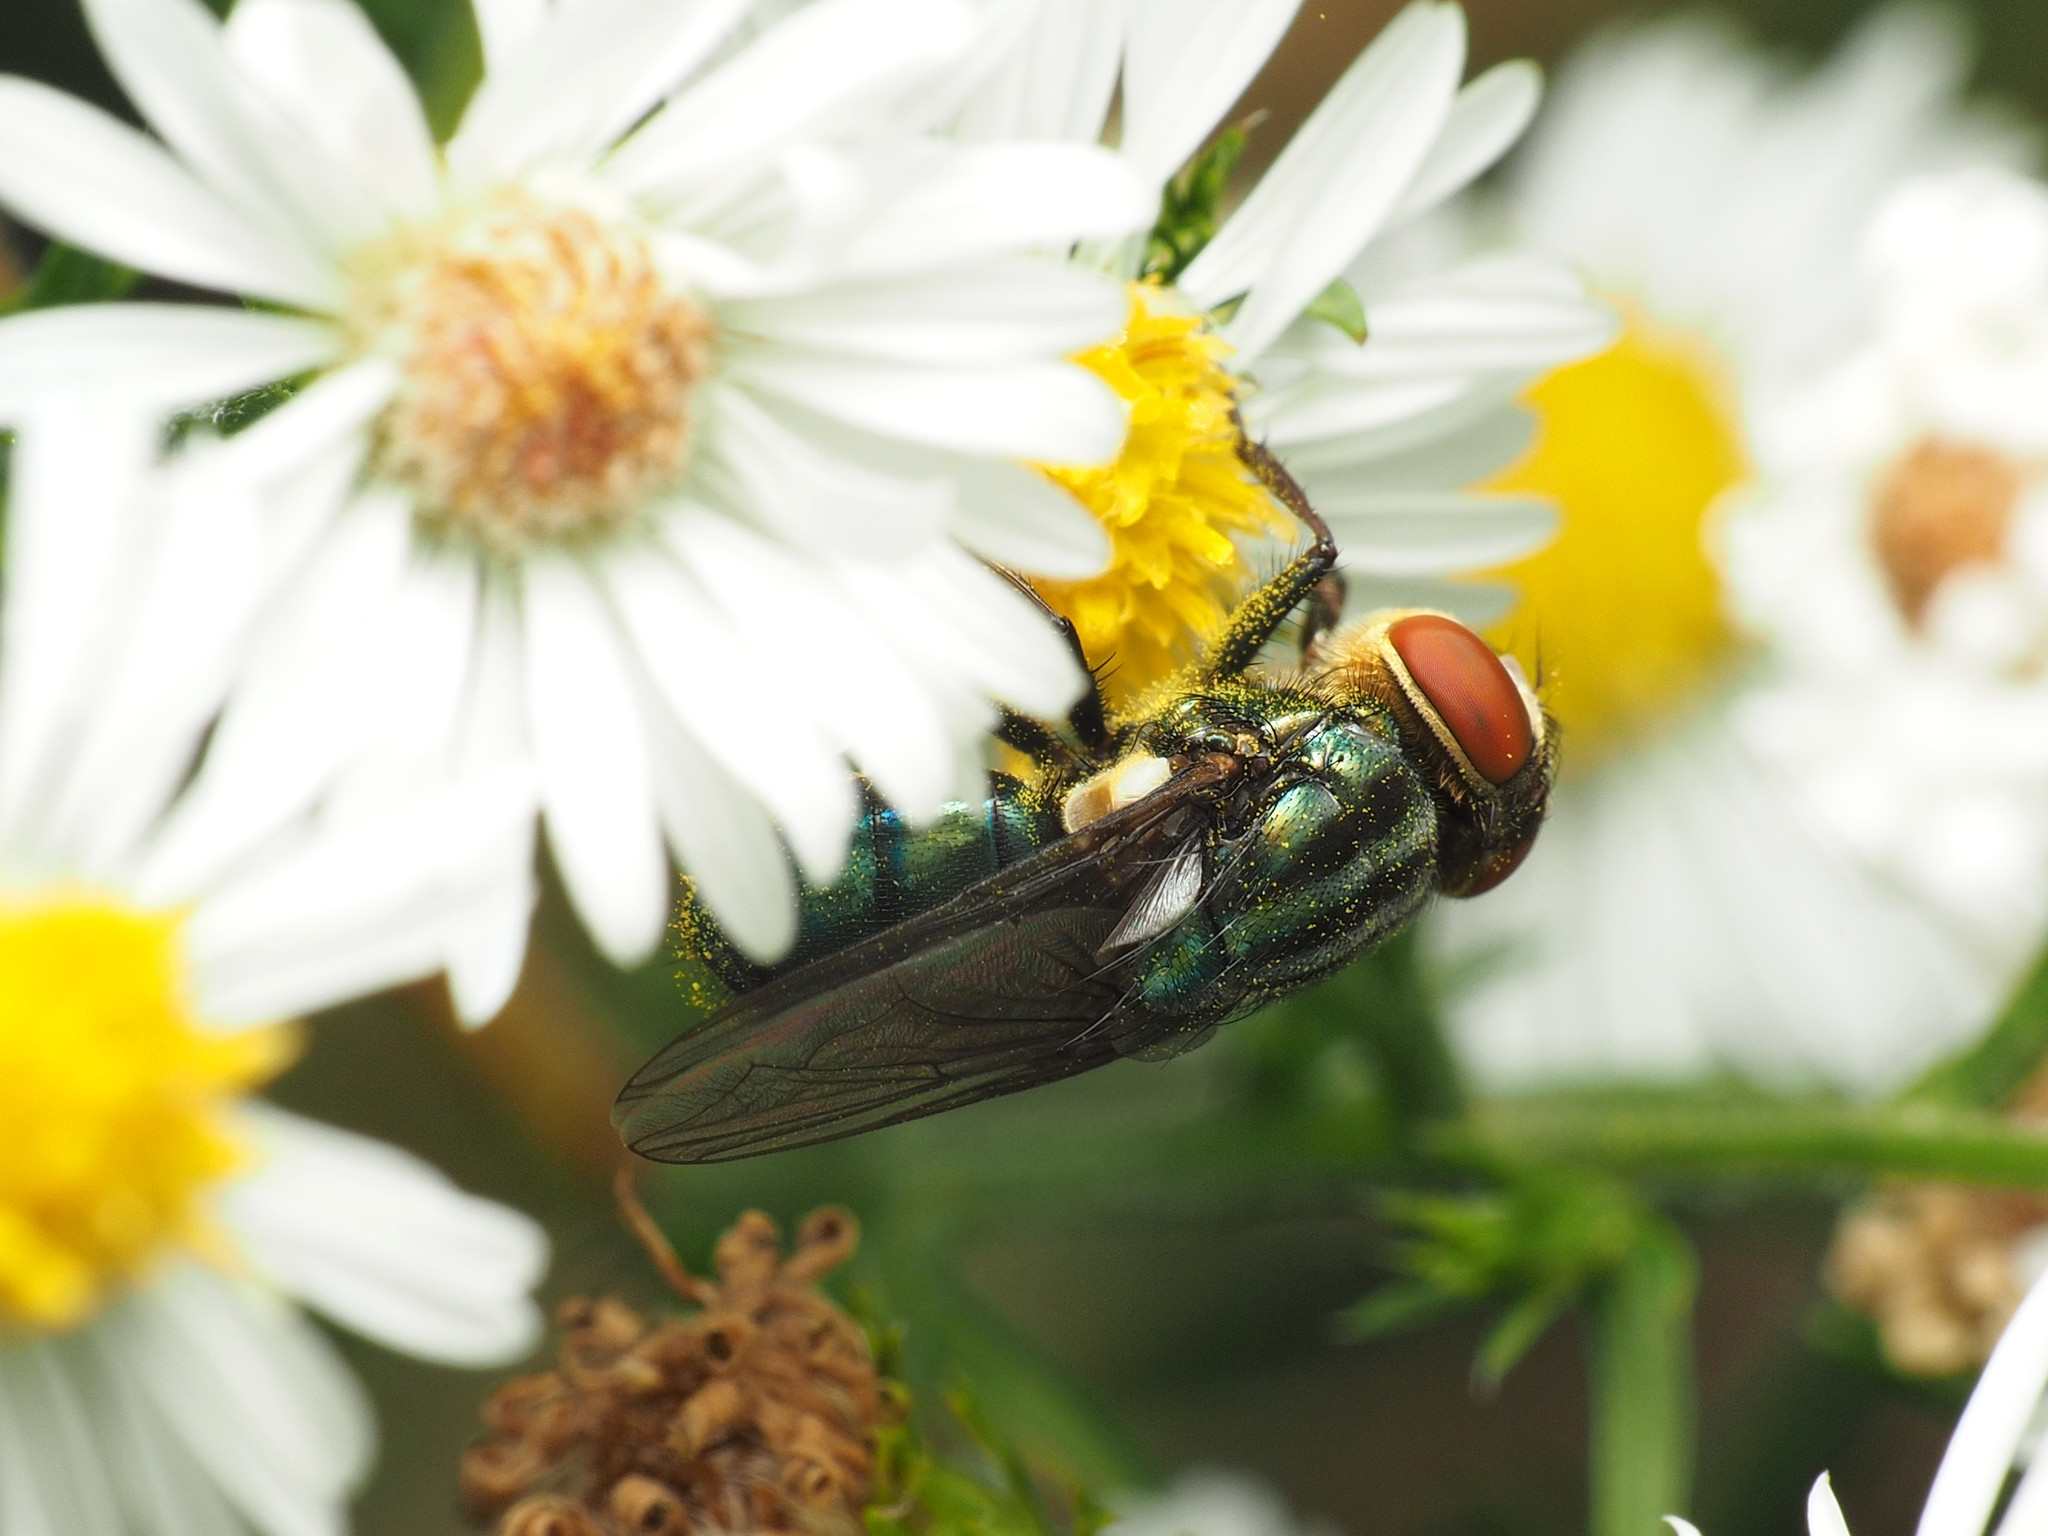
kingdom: Animalia
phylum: Arthropoda
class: Insecta
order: Diptera
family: Calliphoridae
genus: Cochliomyia
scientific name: Cochliomyia macellaria
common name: Secondary screwworm
